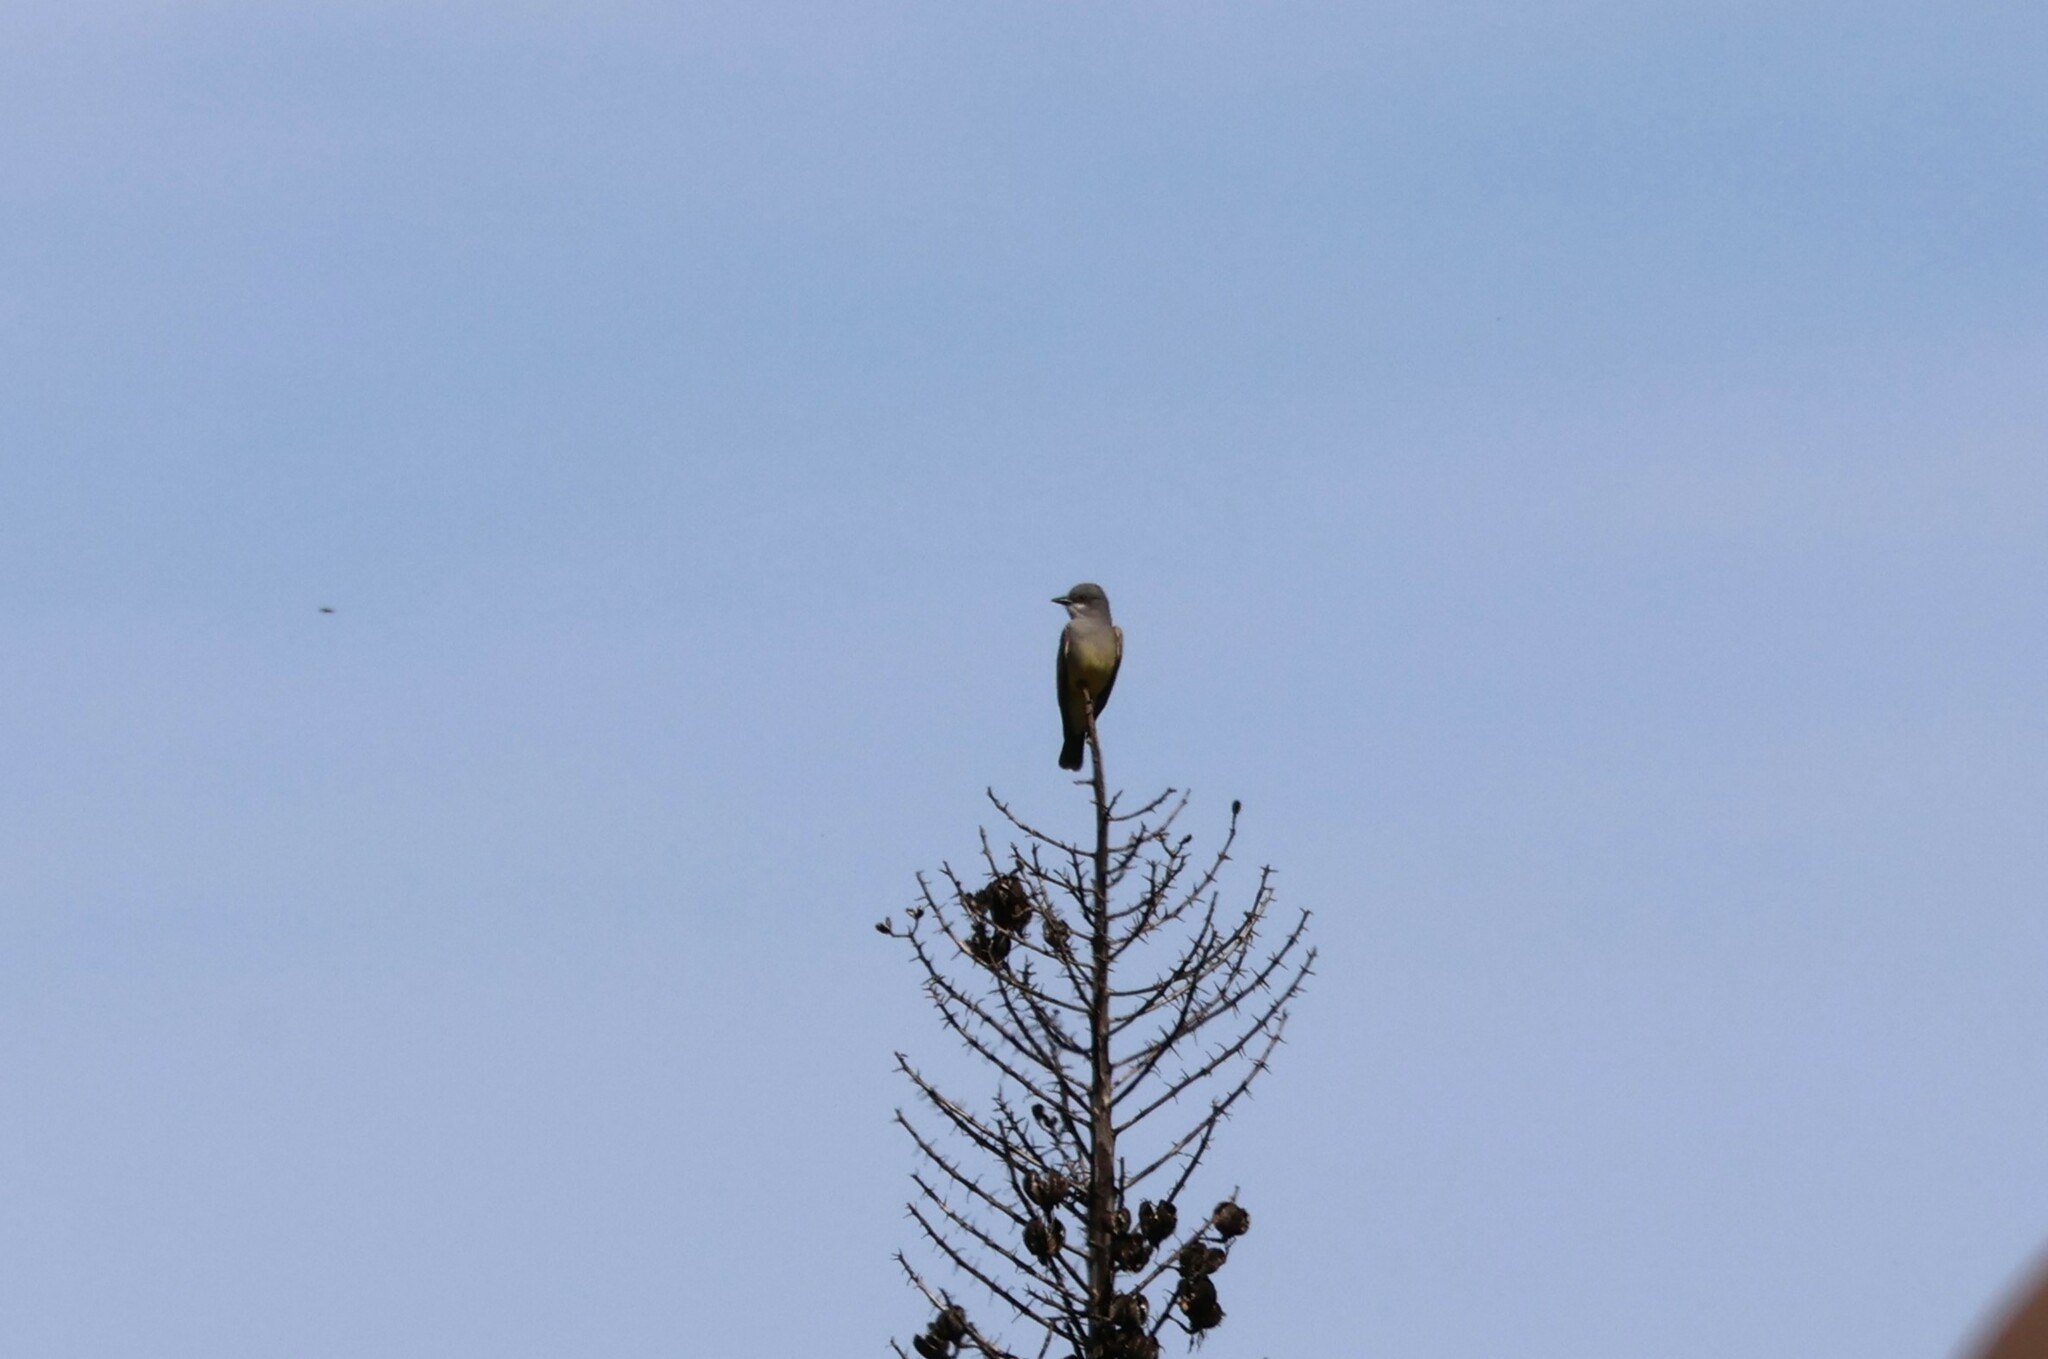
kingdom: Animalia
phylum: Chordata
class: Aves
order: Passeriformes
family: Tyrannidae
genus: Tyrannus
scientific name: Tyrannus vociferans
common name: Cassin's kingbird
